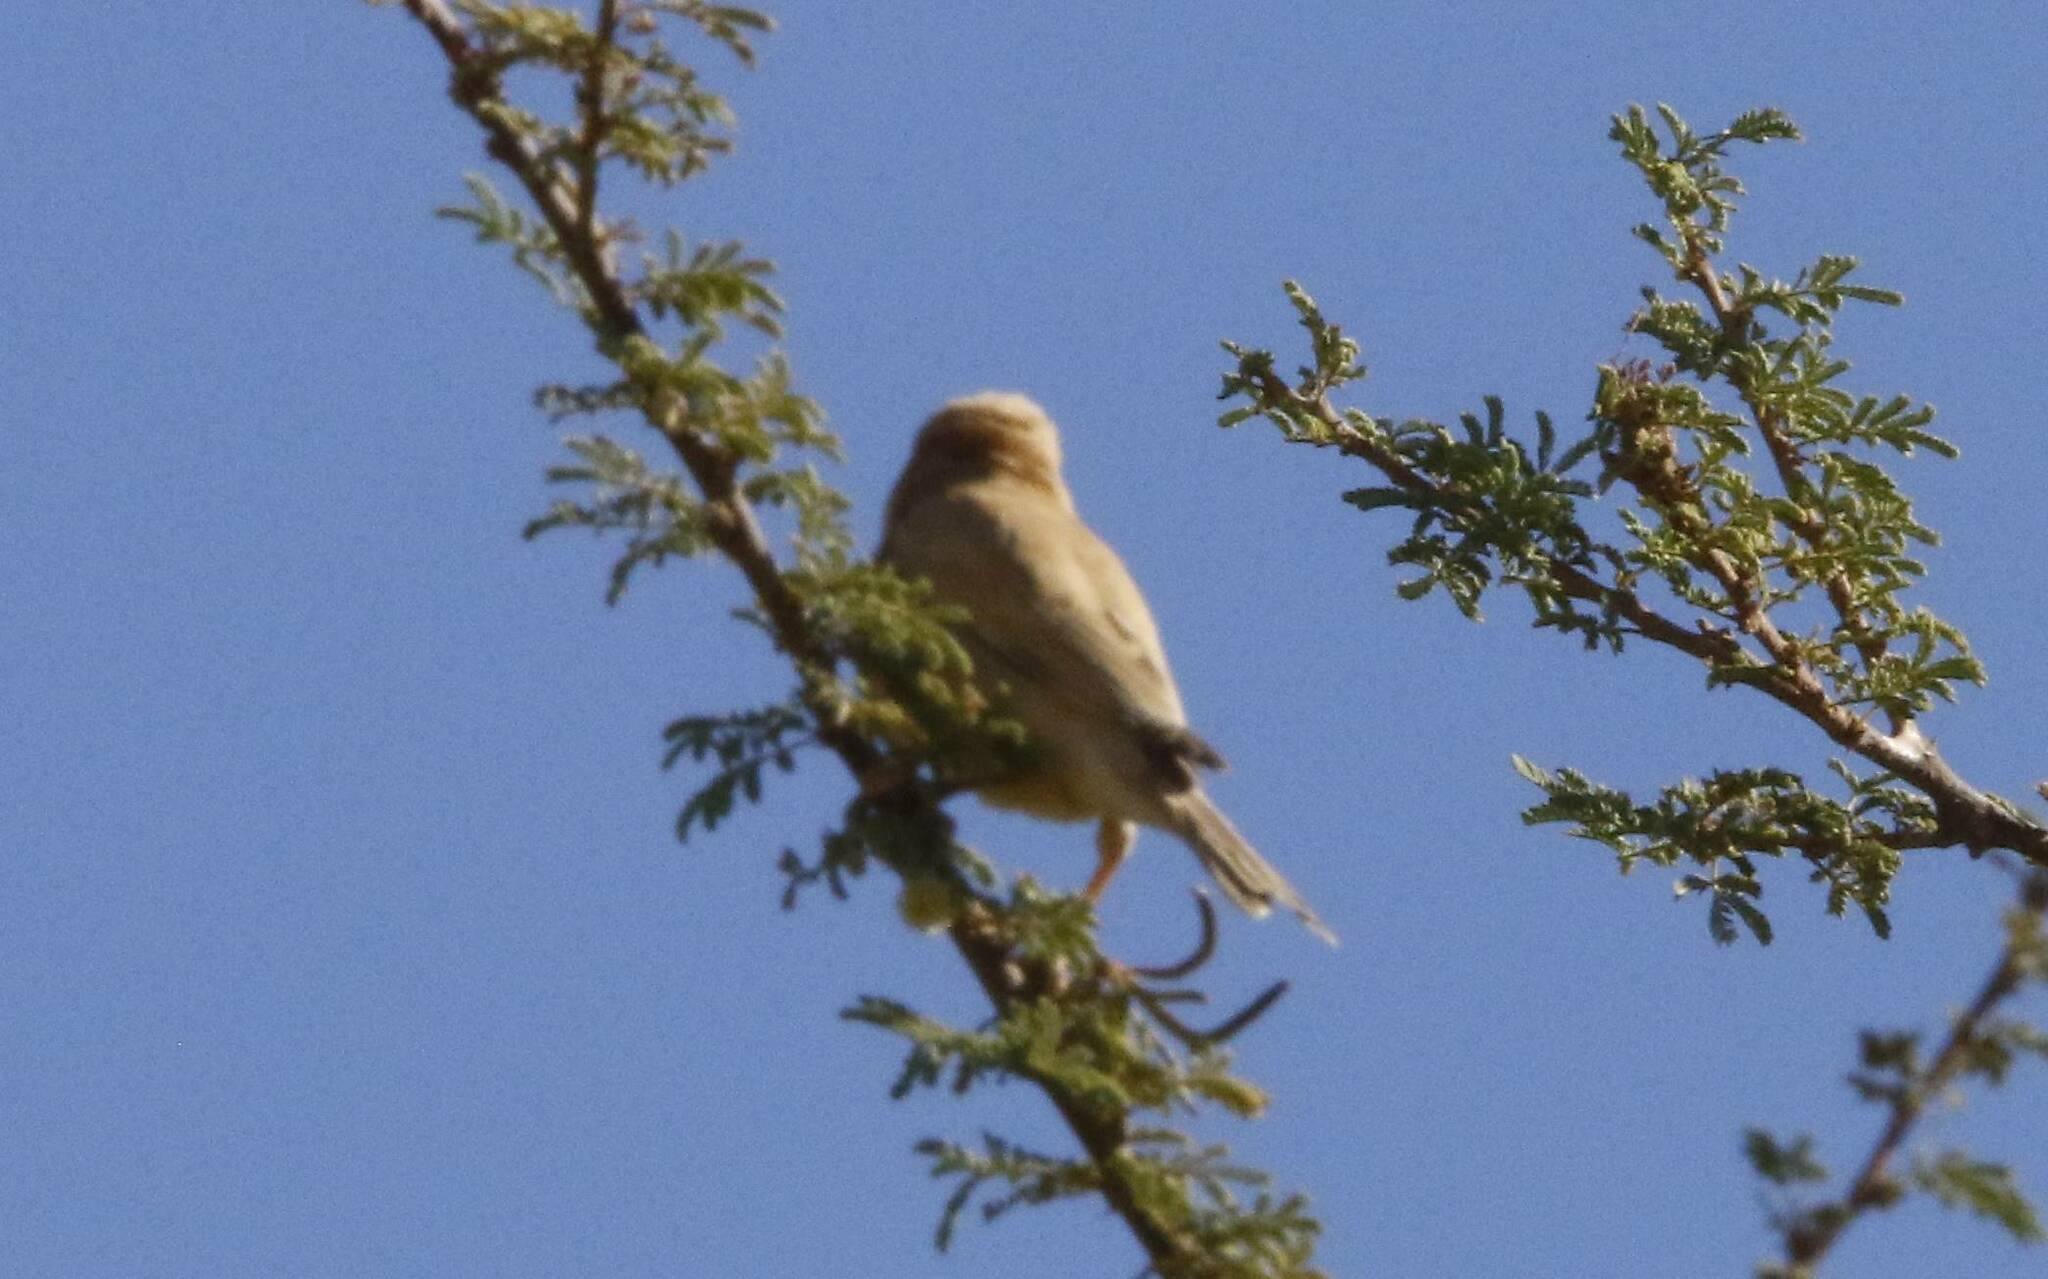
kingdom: Animalia
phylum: Chordata
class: Aves
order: Passeriformes
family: Passeridae
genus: Passer
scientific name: Passer simplex
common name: Desert sparrow
